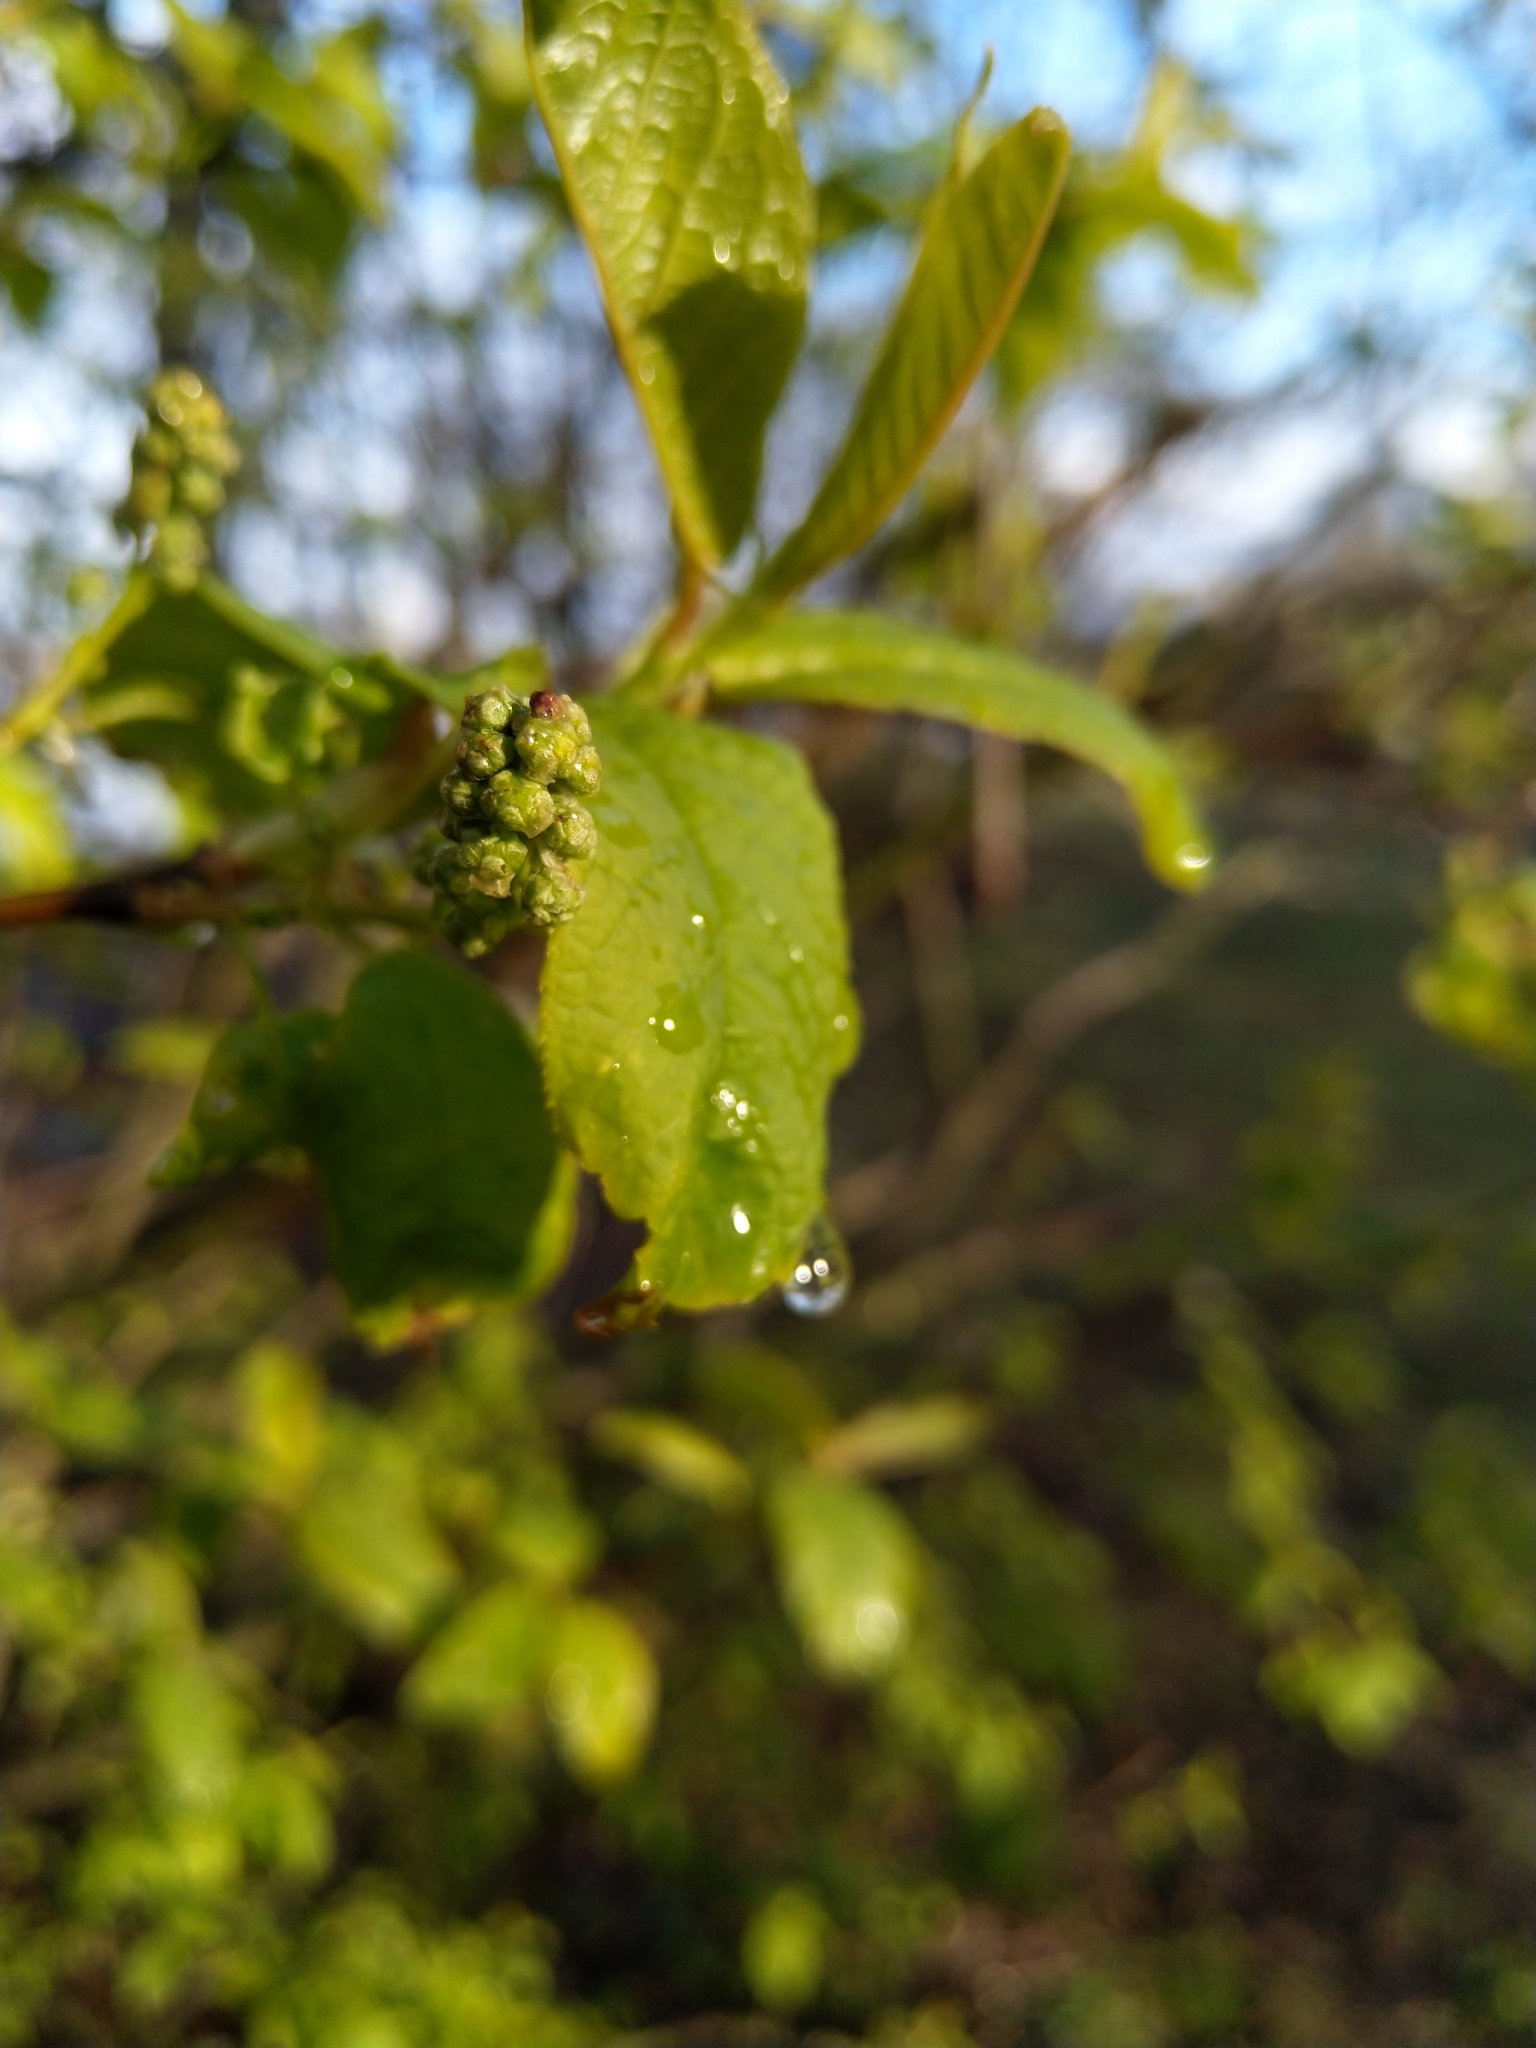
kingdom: Plantae
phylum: Tracheophyta
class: Magnoliopsida
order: Rosales
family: Rosaceae
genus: Prunus
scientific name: Prunus padus
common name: Bird cherry
